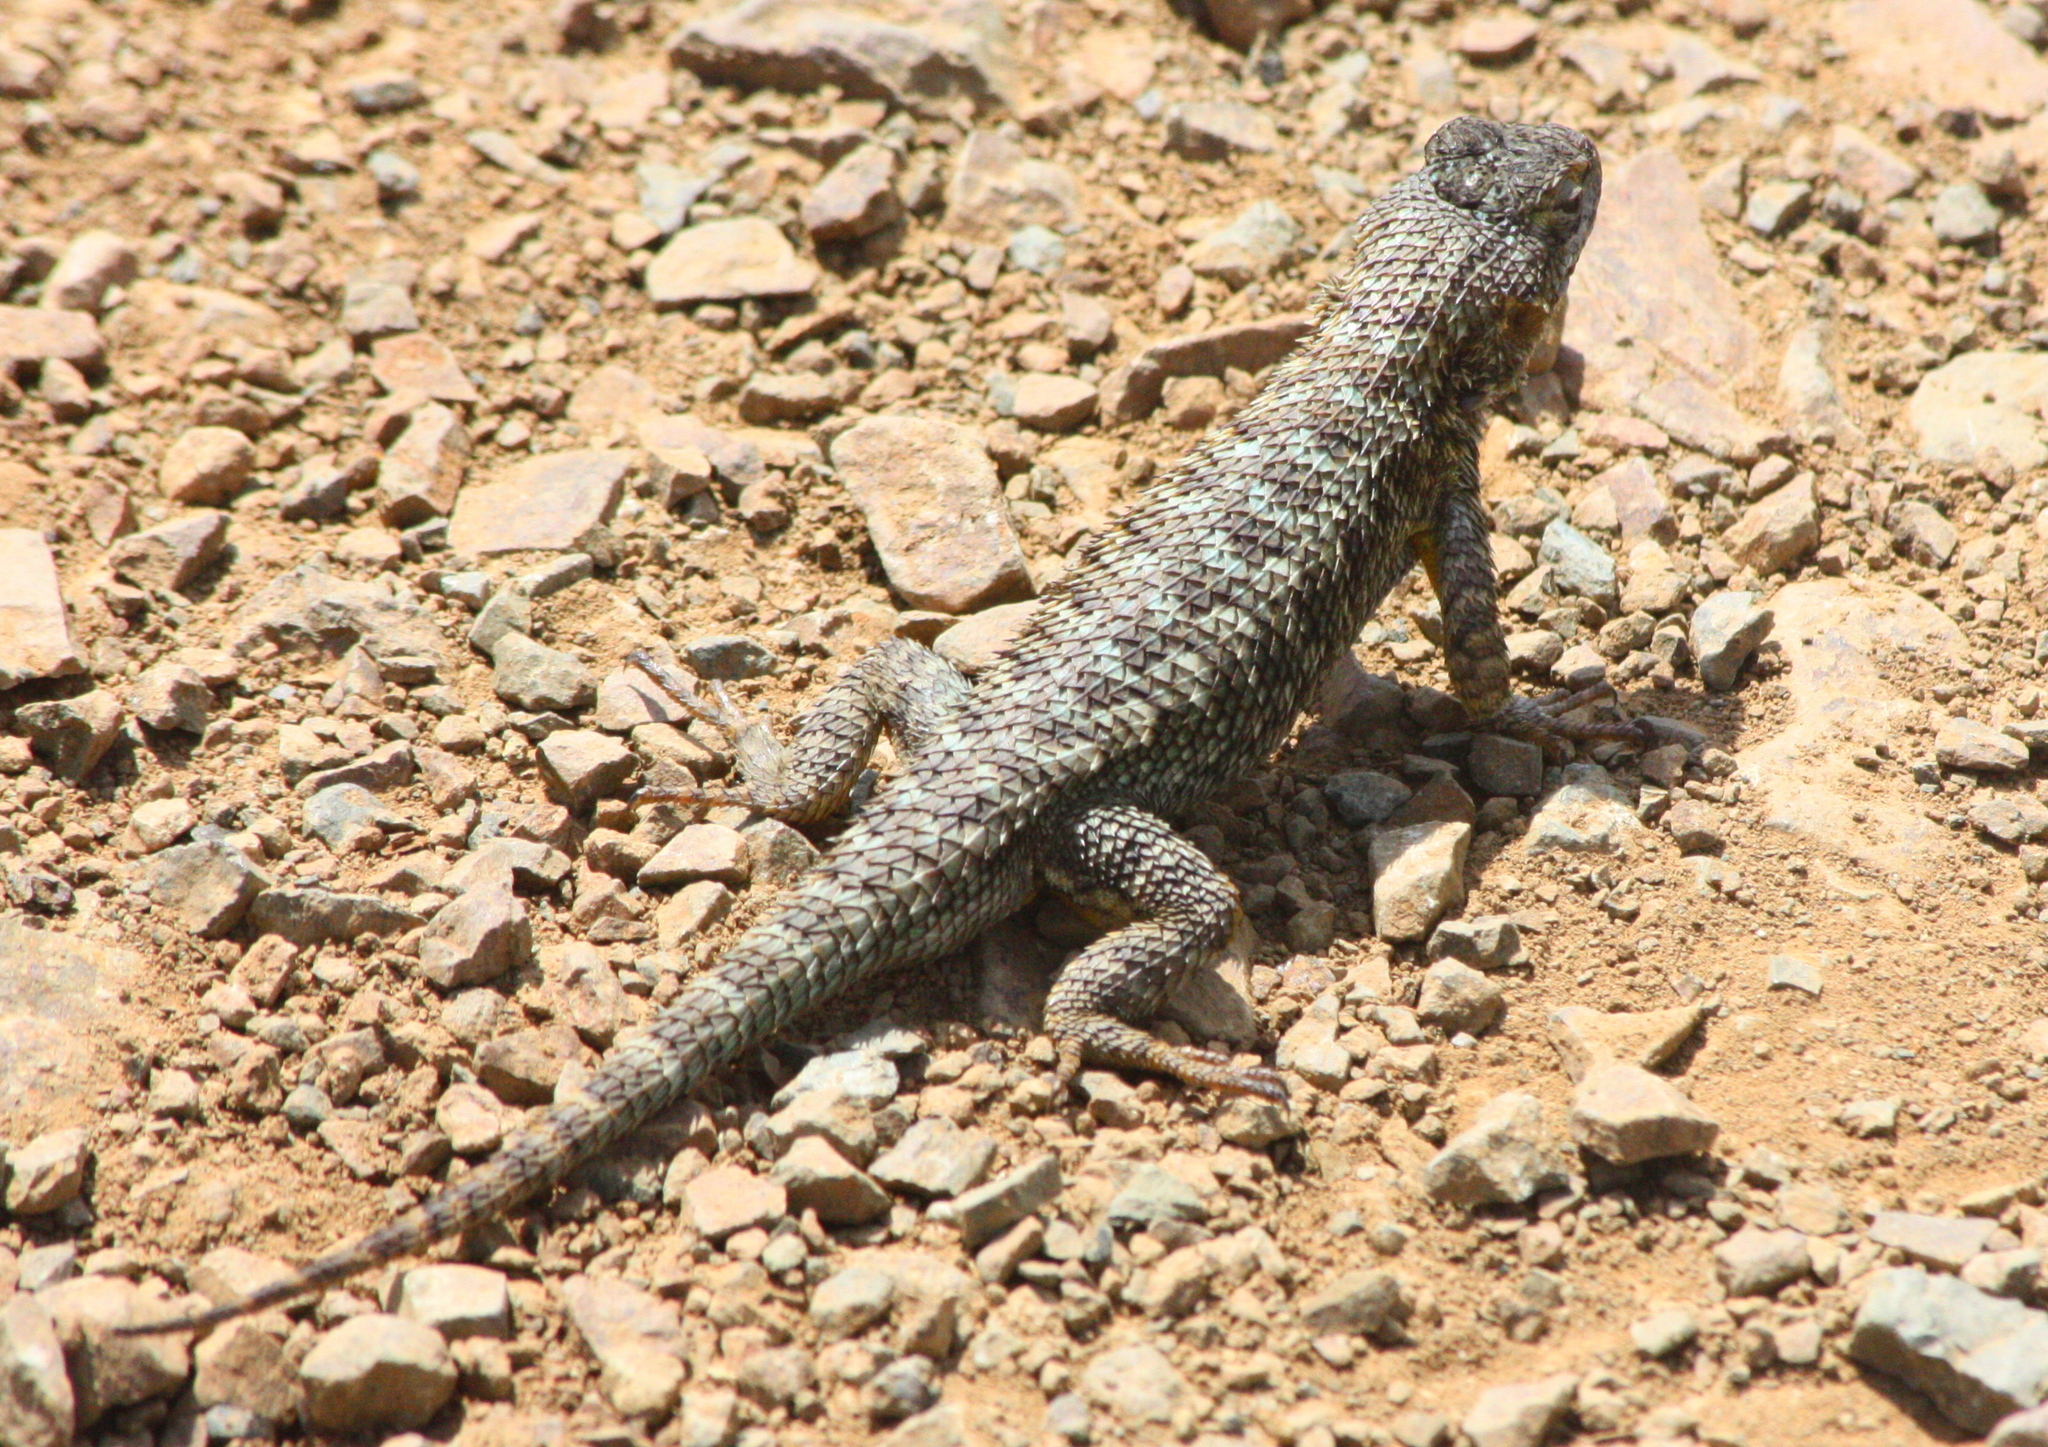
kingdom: Animalia
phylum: Chordata
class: Squamata
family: Phrynosomatidae
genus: Sceloporus
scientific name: Sceloporus occidentalis
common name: Western fence lizard
